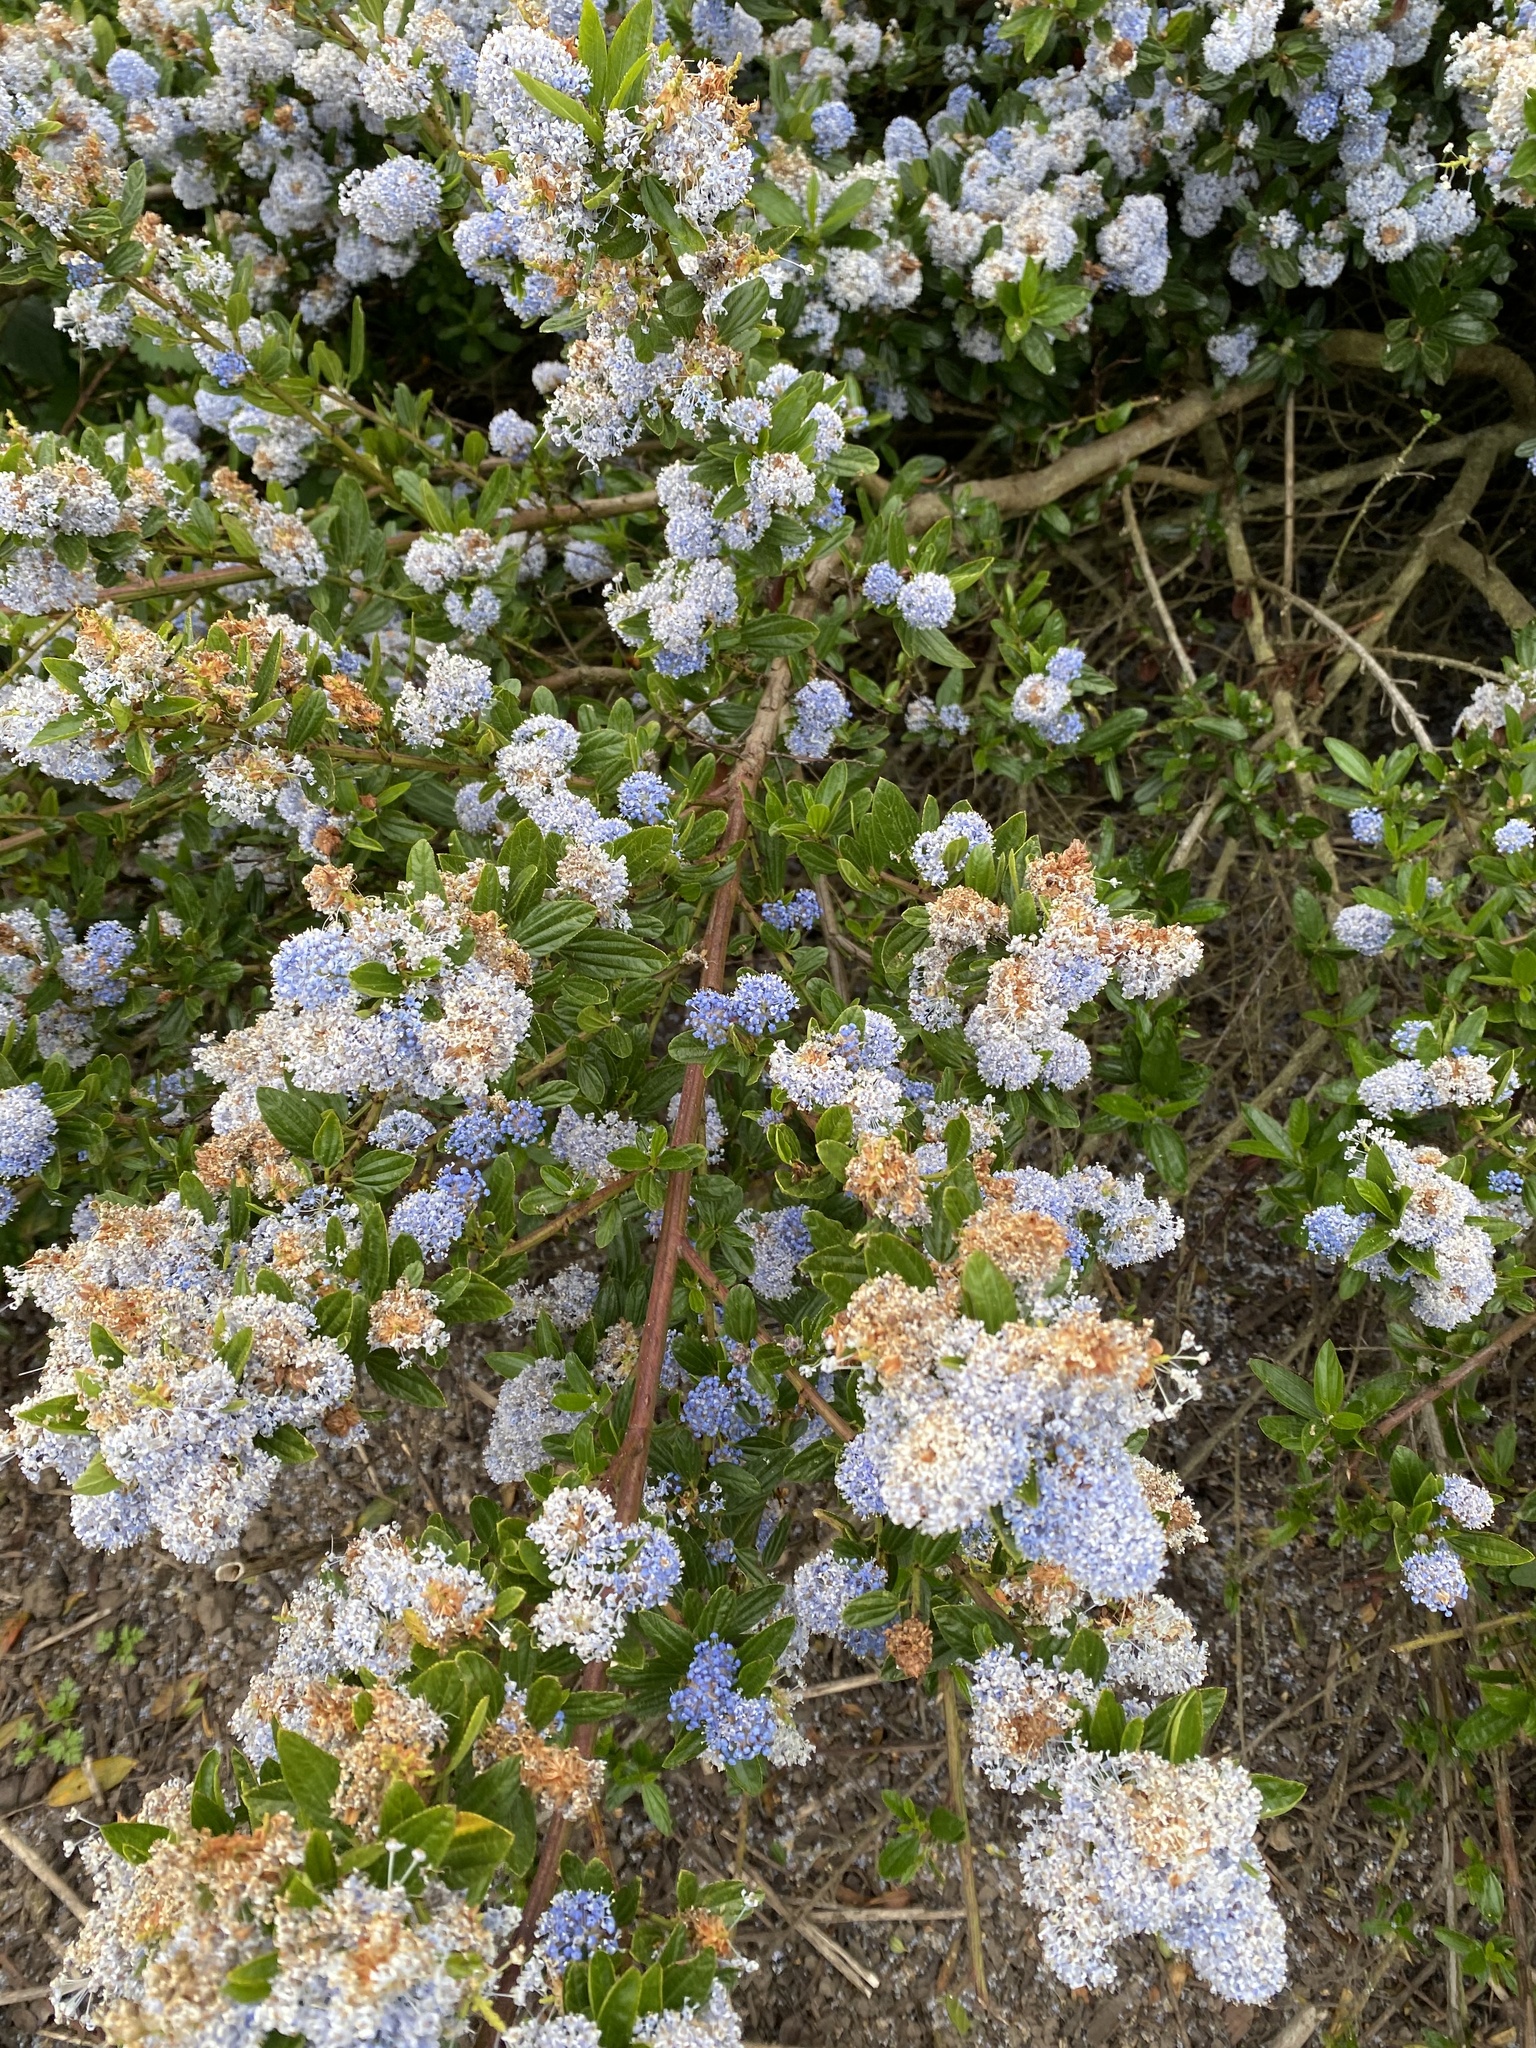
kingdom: Plantae
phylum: Tracheophyta
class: Magnoliopsida
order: Rosales
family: Rhamnaceae
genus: Ceanothus
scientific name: Ceanothus thyrsiflorus
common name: California-lilac
